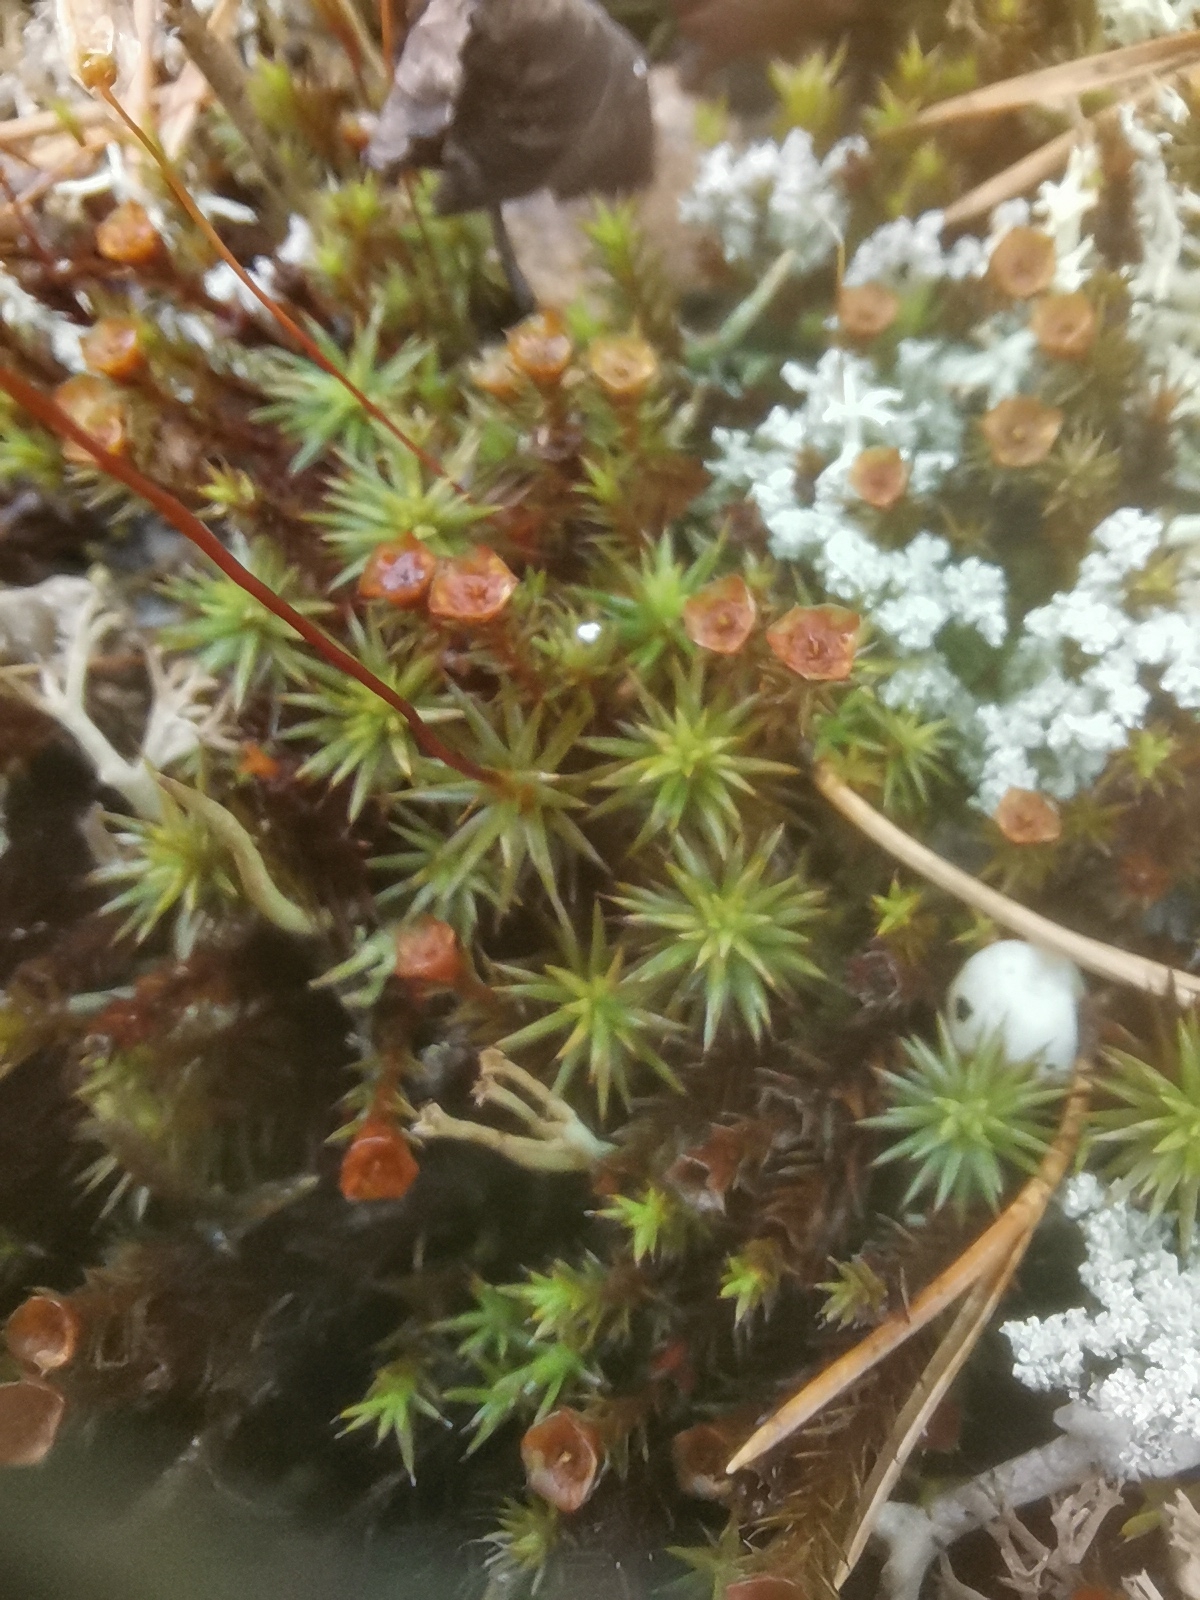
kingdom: Plantae
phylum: Bryophyta
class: Polytrichopsida
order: Polytrichales
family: Polytrichaceae
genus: Polytrichum
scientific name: Polytrichum juniperinum
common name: Juniper haircap moss
